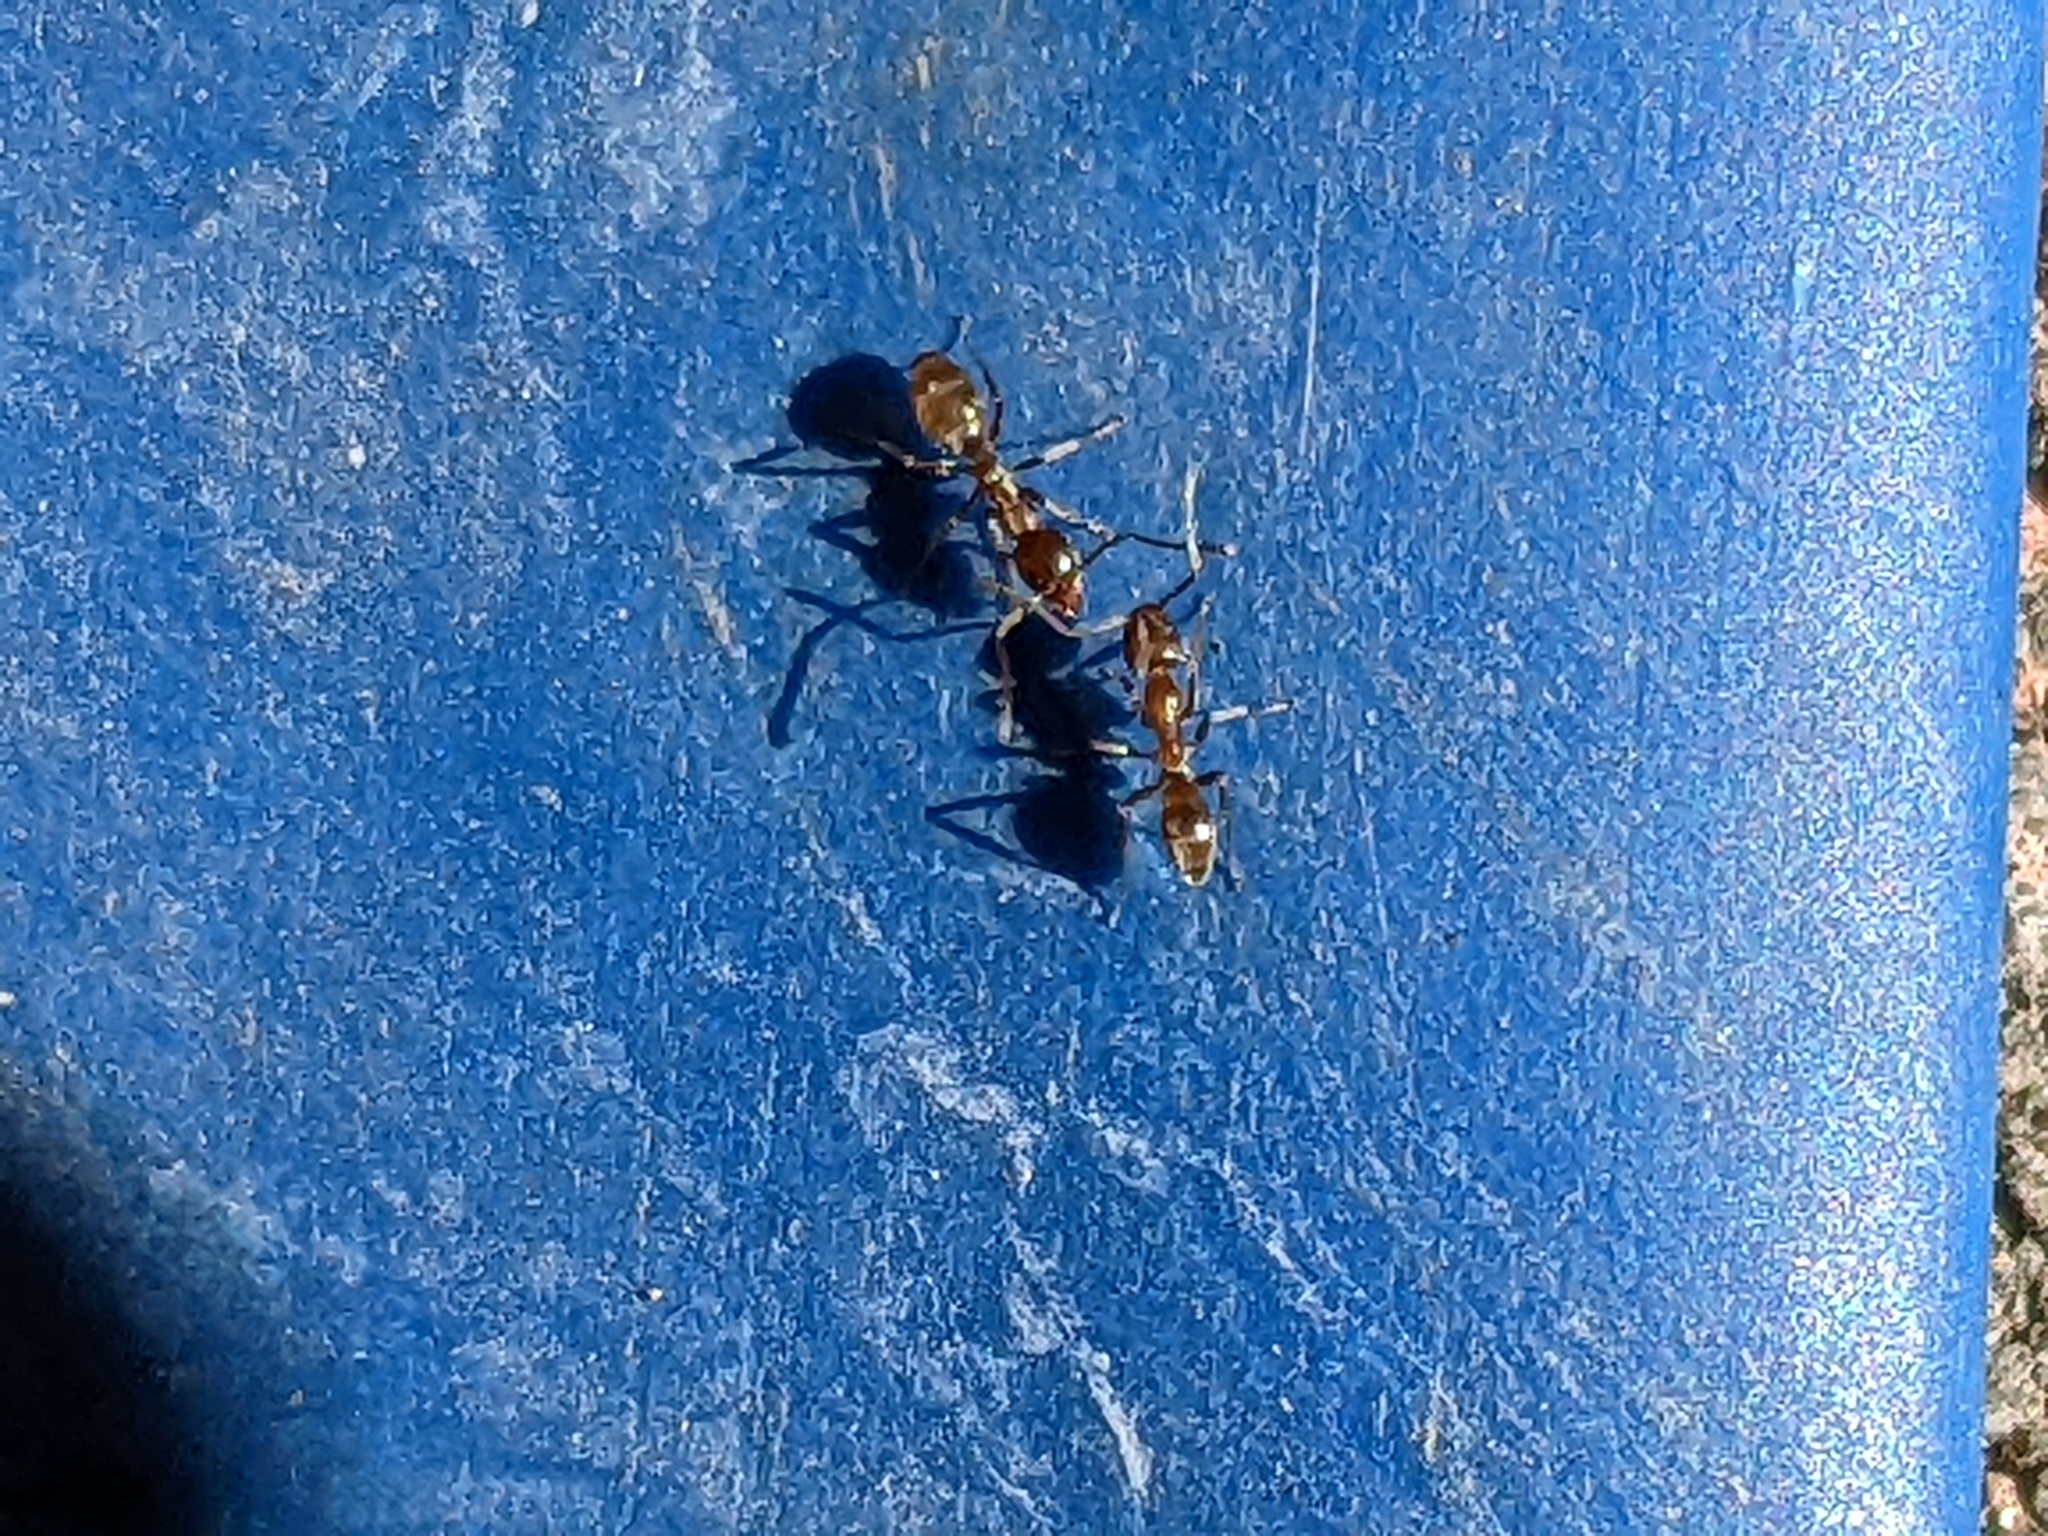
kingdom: Animalia
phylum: Arthropoda
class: Insecta
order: Hymenoptera
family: Formicidae
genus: Linepithema
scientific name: Linepithema humile
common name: Argentine ant
